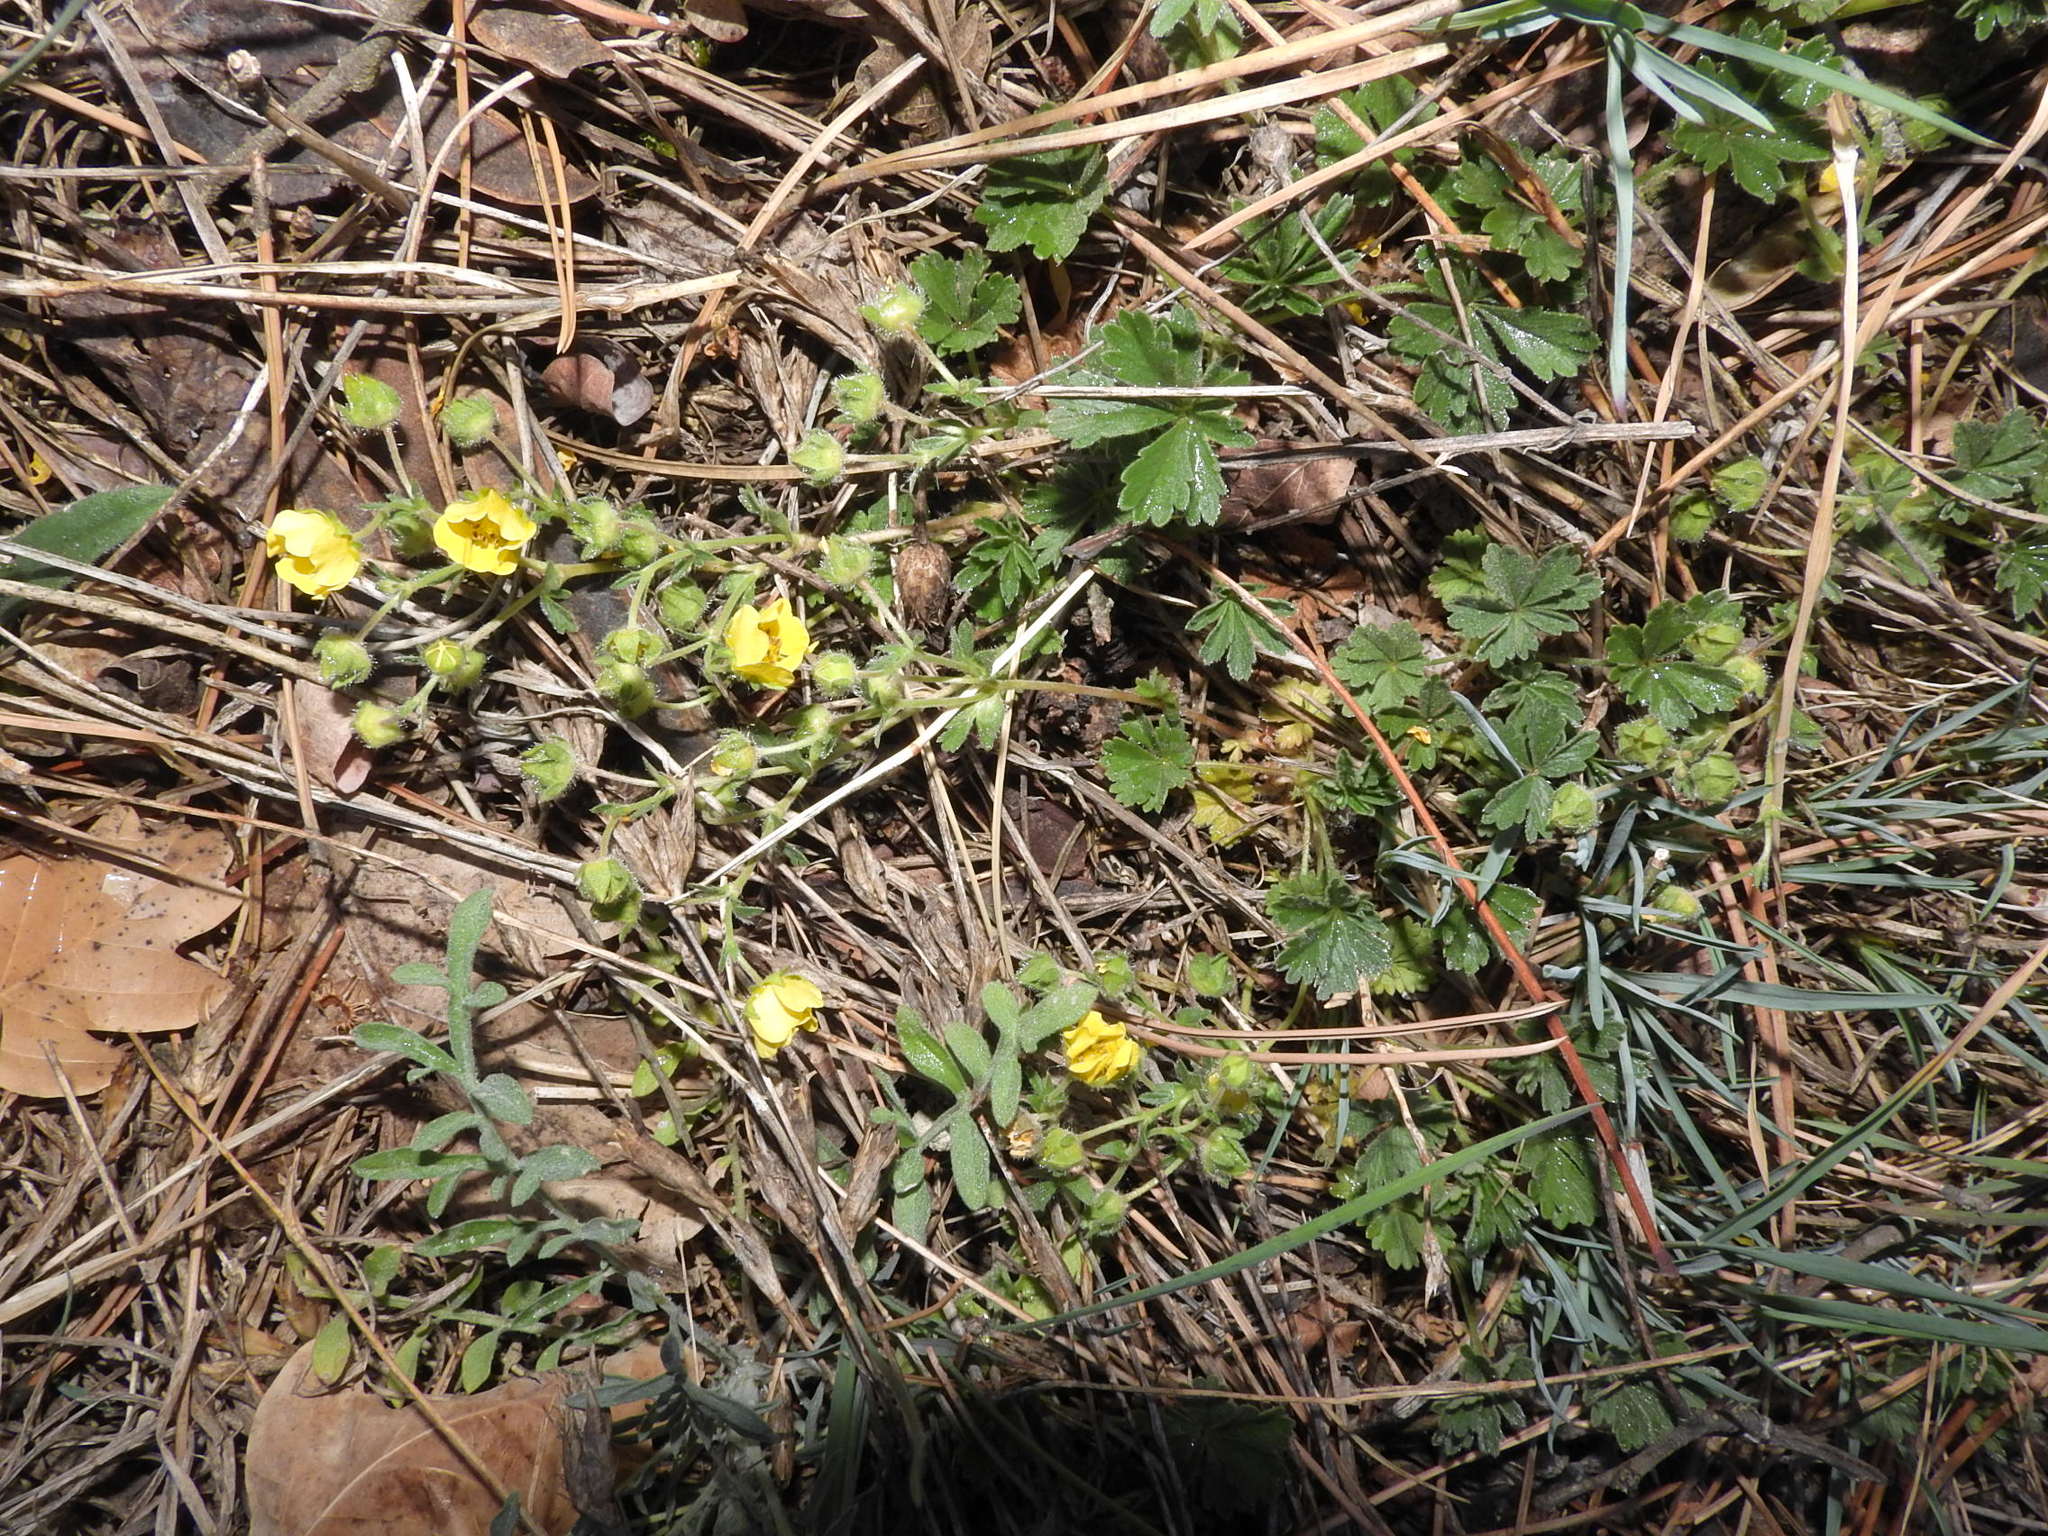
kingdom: Plantae
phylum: Tracheophyta
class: Magnoliopsida
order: Rosales
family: Rosaceae
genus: Potentilla
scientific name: Potentilla incana
